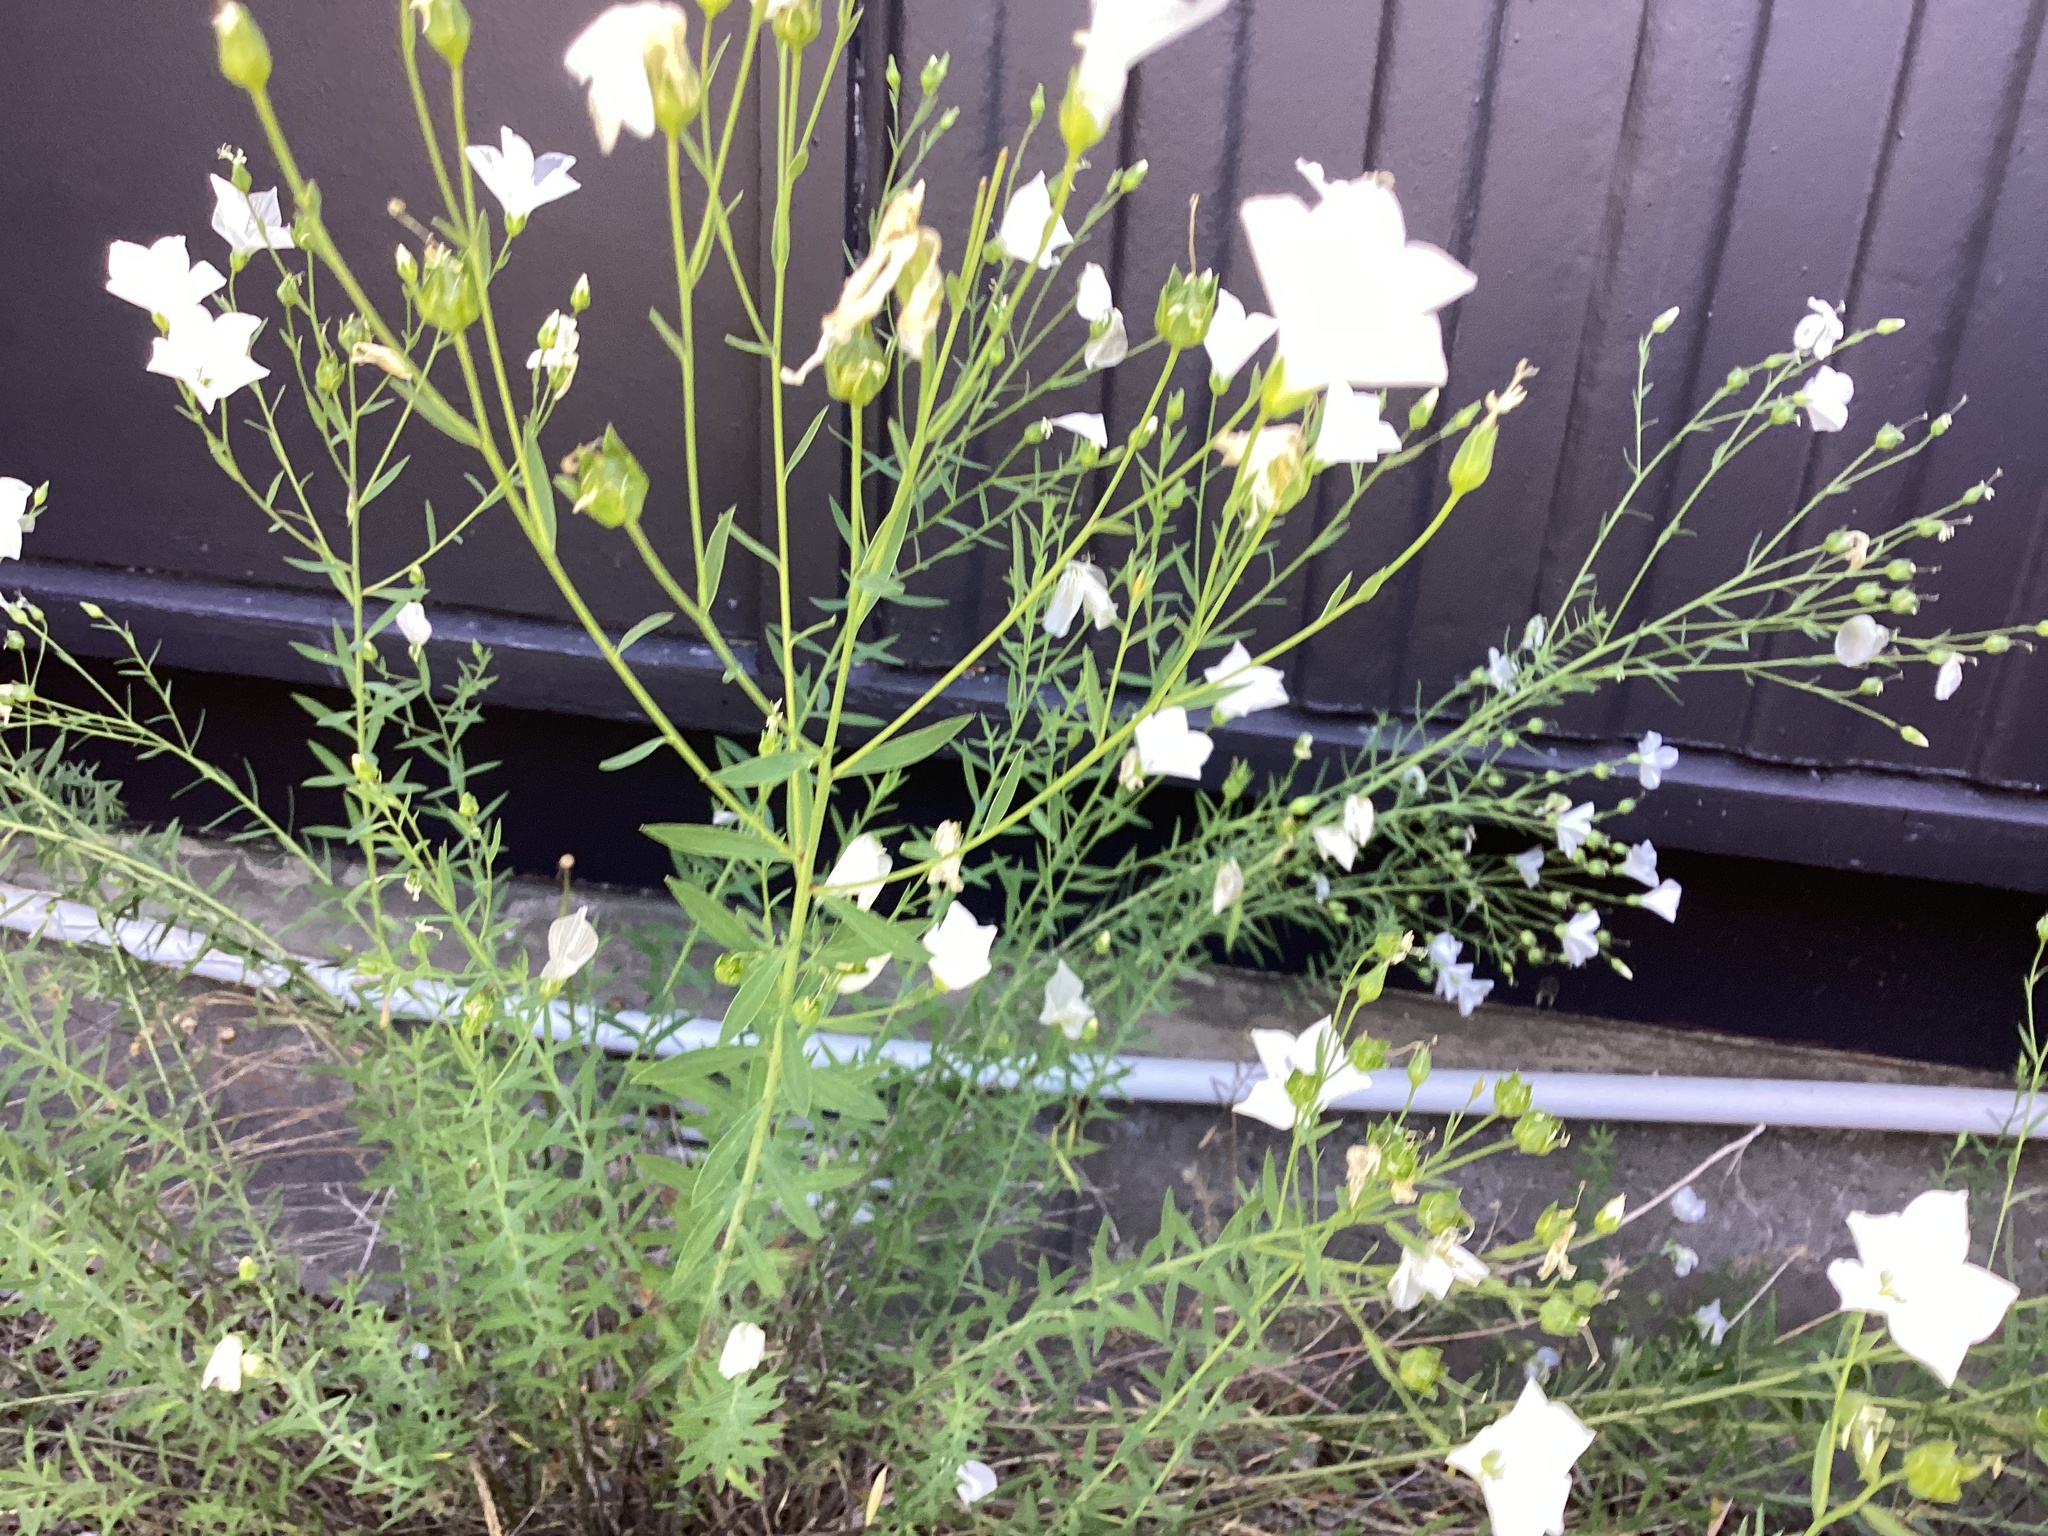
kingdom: Plantae
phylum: Tracheophyta
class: Magnoliopsida
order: Malpighiales
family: Linaceae
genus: Linum
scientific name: Linum monogynum
